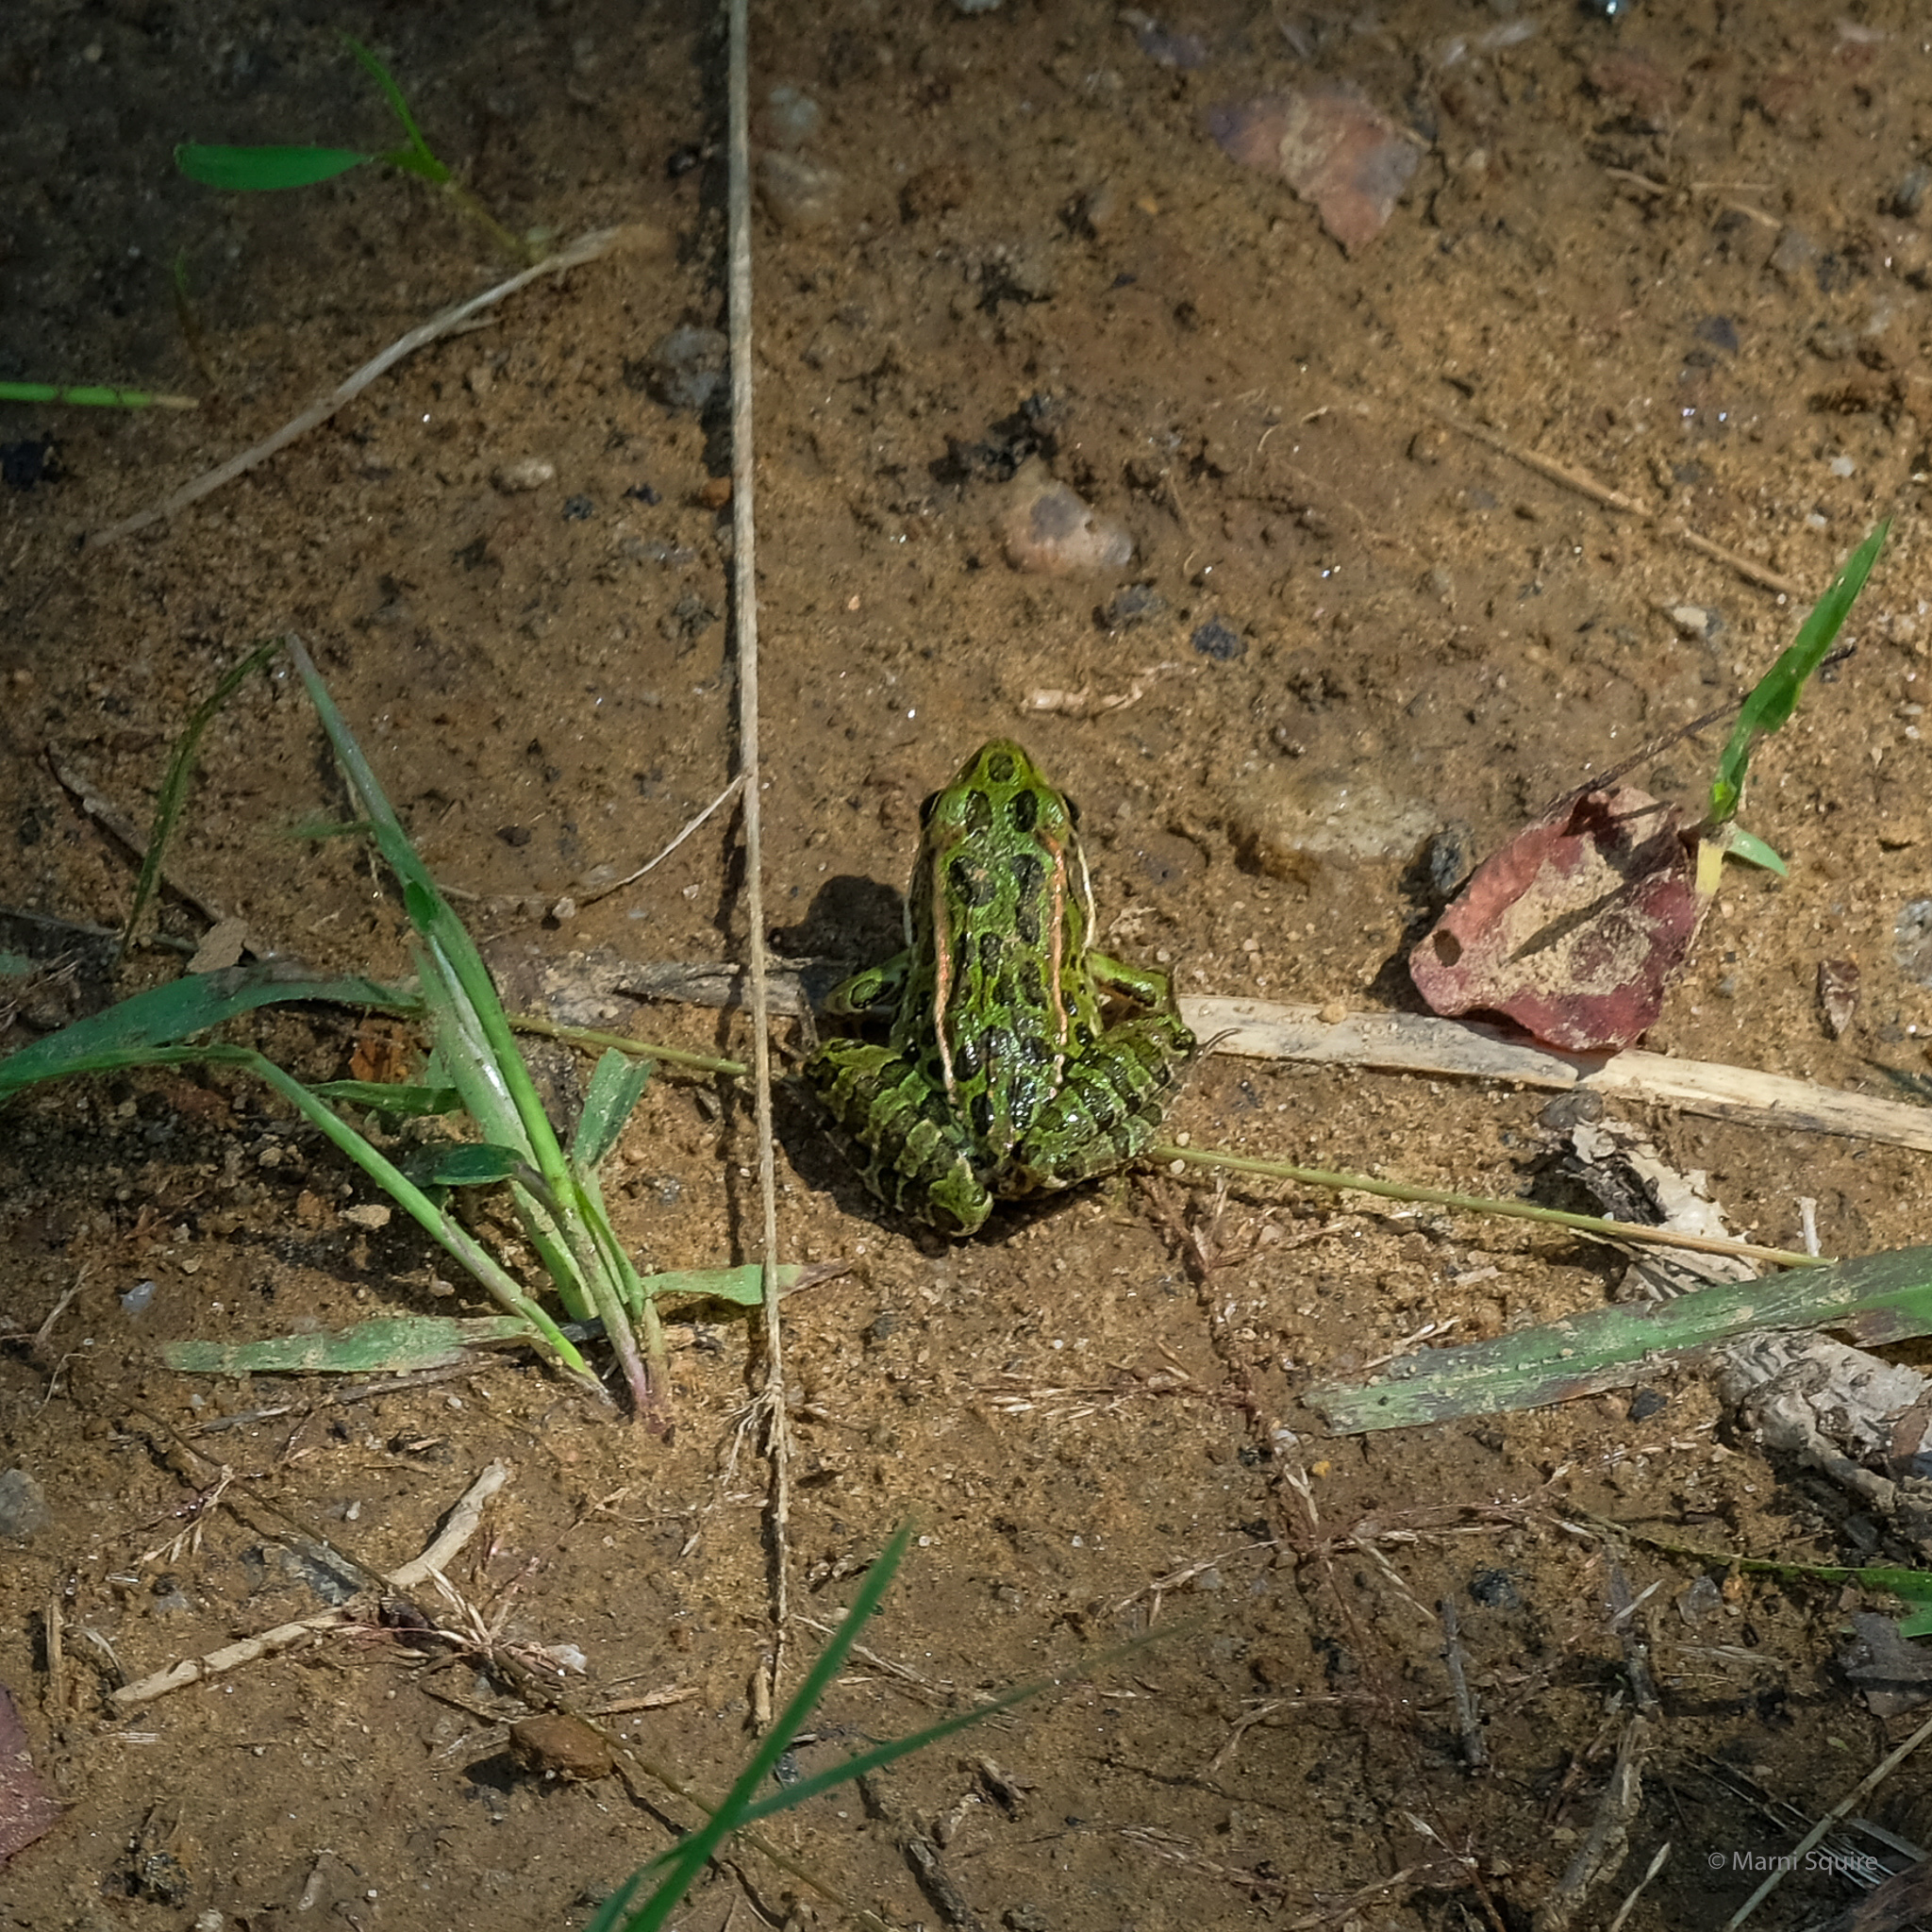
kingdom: Animalia
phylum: Chordata
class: Amphibia
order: Anura
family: Ranidae
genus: Lithobates
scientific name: Lithobates pipiens
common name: Northern leopard frog
